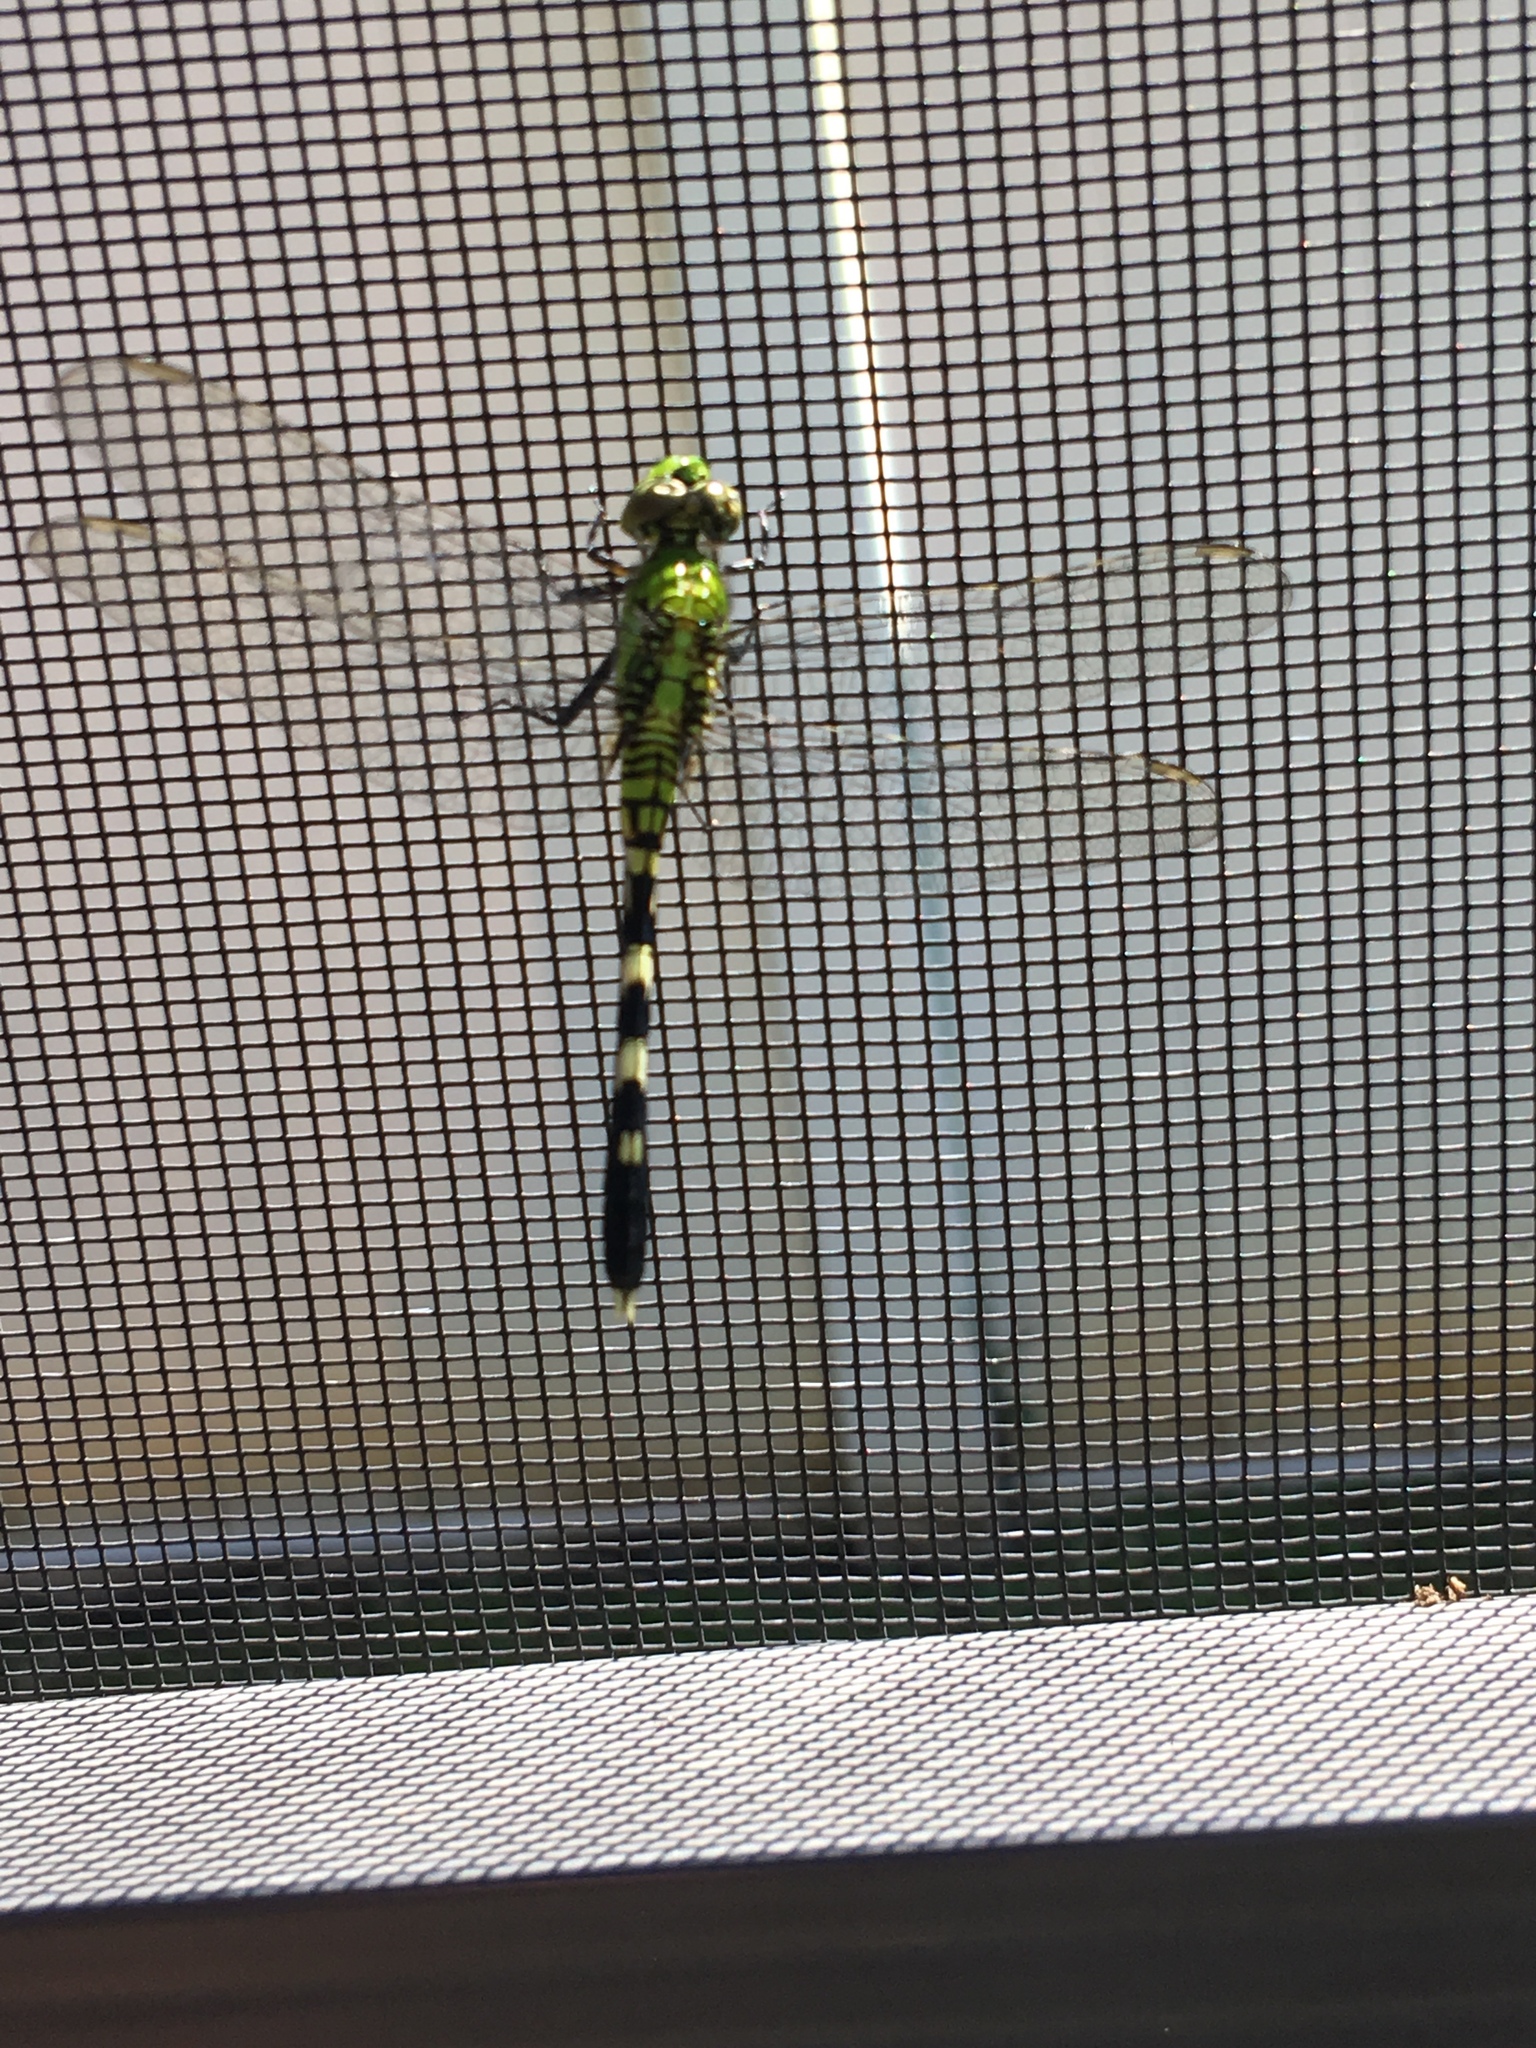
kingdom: Animalia
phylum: Arthropoda
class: Insecta
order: Odonata
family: Libellulidae
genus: Erythemis
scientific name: Erythemis simplicicollis
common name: Eastern pondhawk
